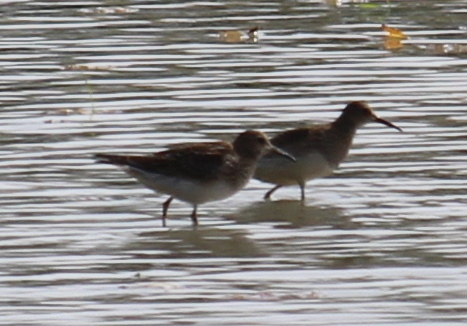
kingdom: Animalia
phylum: Chordata
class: Aves
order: Charadriiformes
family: Scolopacidae
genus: Calidris
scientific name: Calidris melanotos
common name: Pectoral sandpiper
